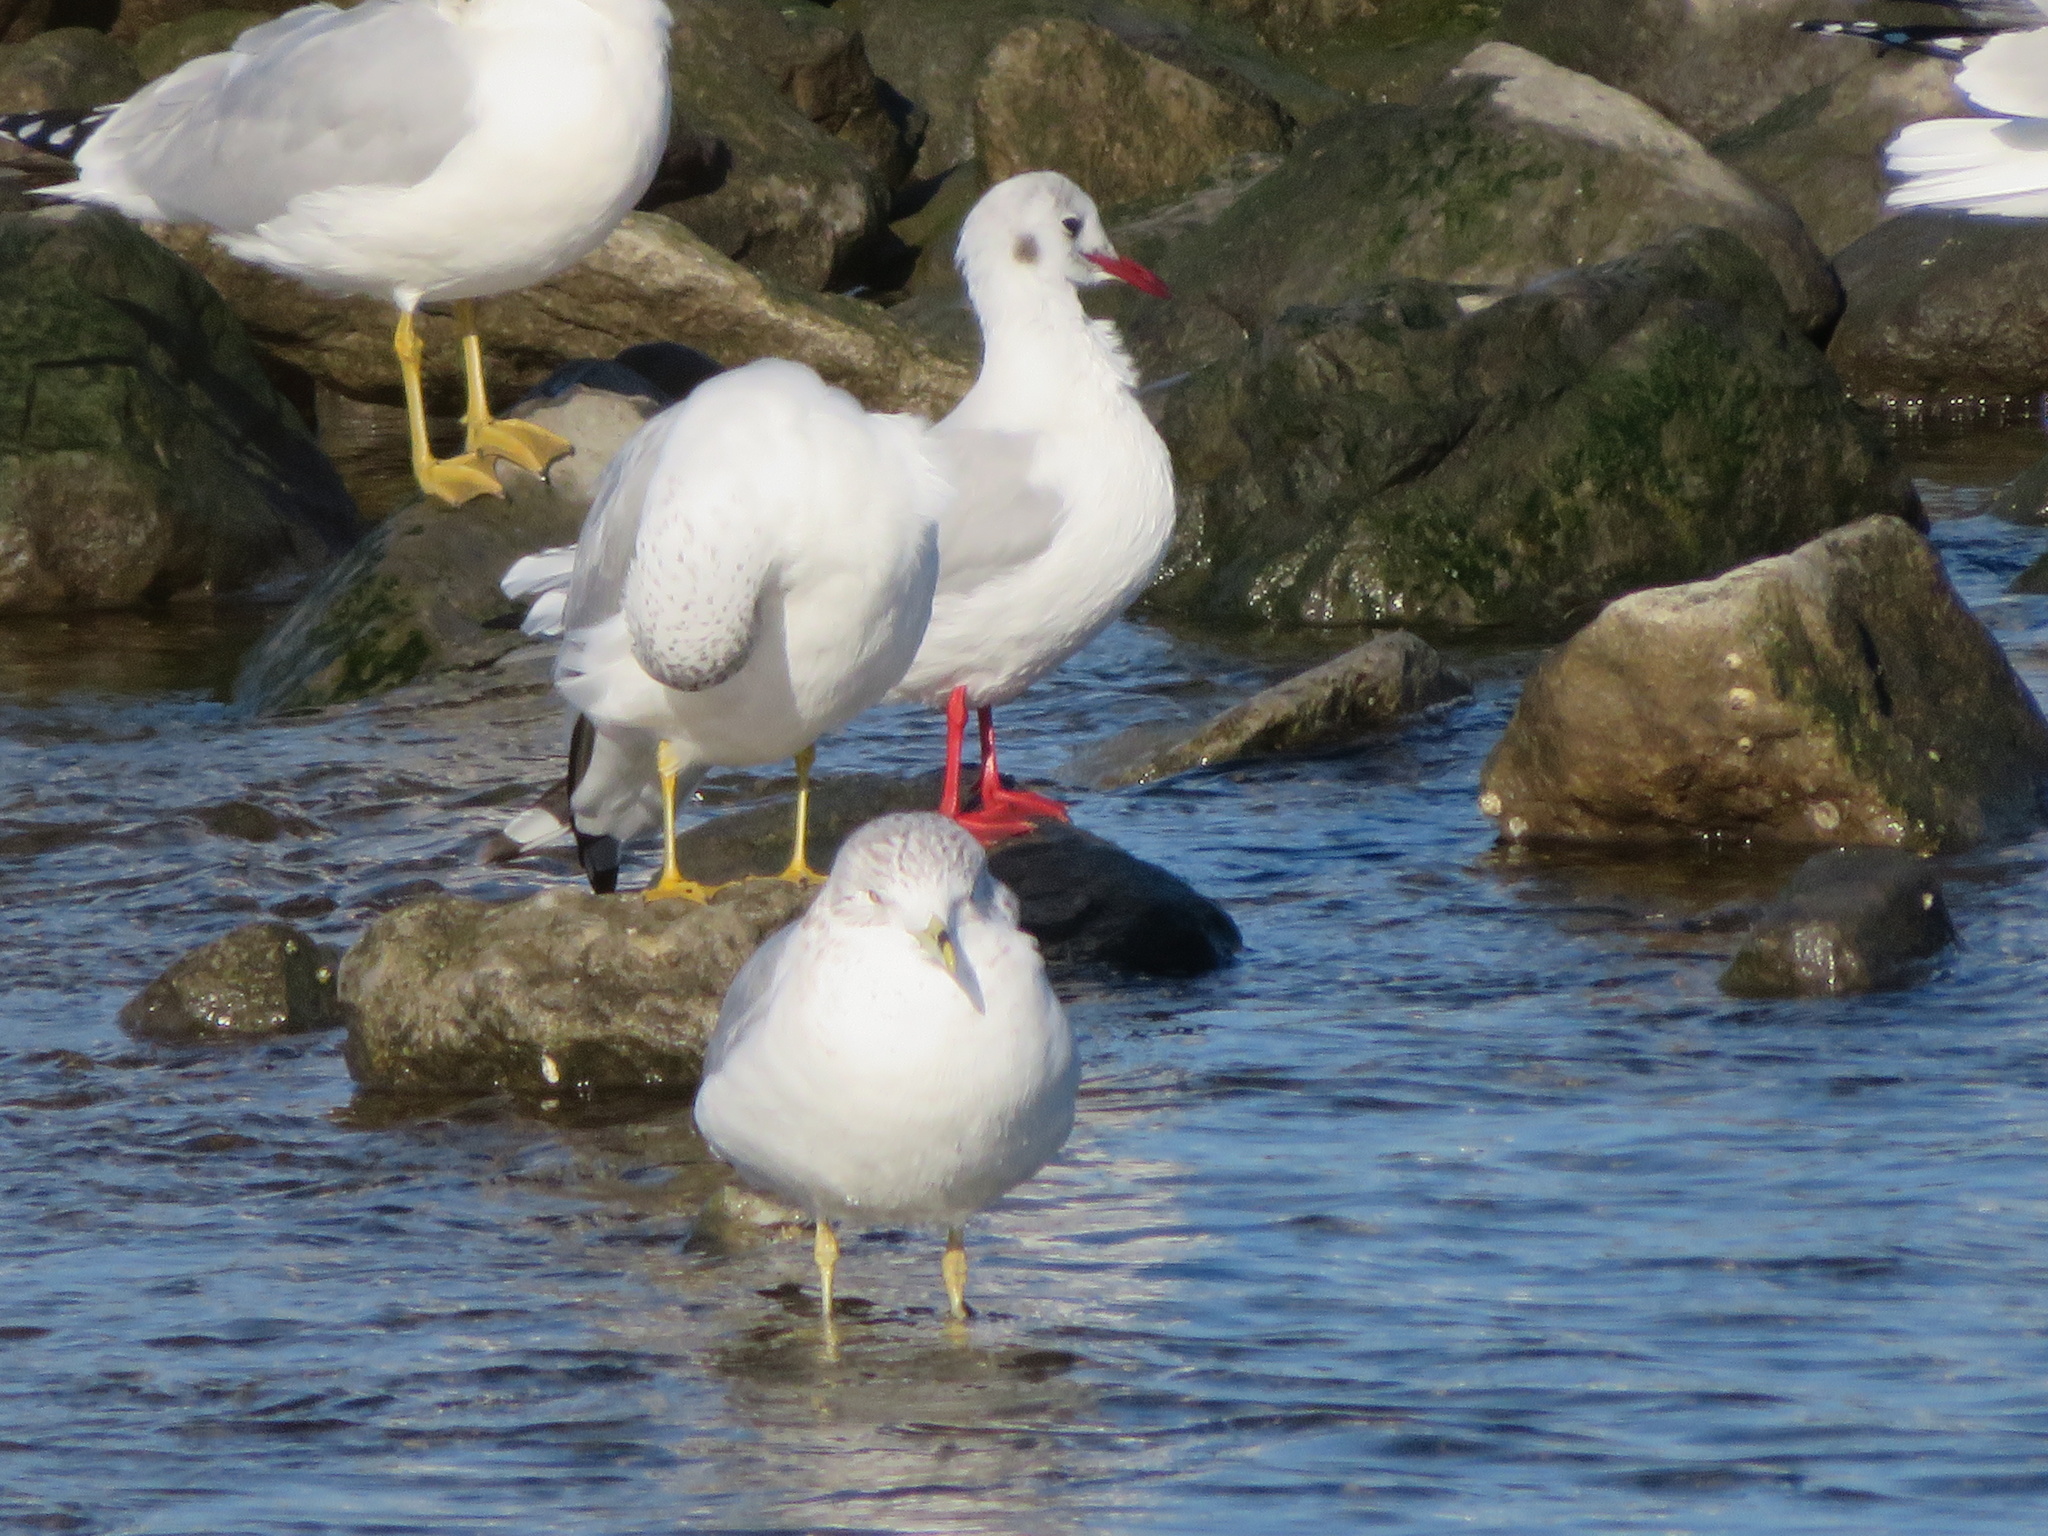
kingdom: Animalia
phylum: Chordata
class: Aves
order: Charadriiformes
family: Laridae
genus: Chroicocephalus
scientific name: Chroicocephalus ridibundus
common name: Black-headed gull
